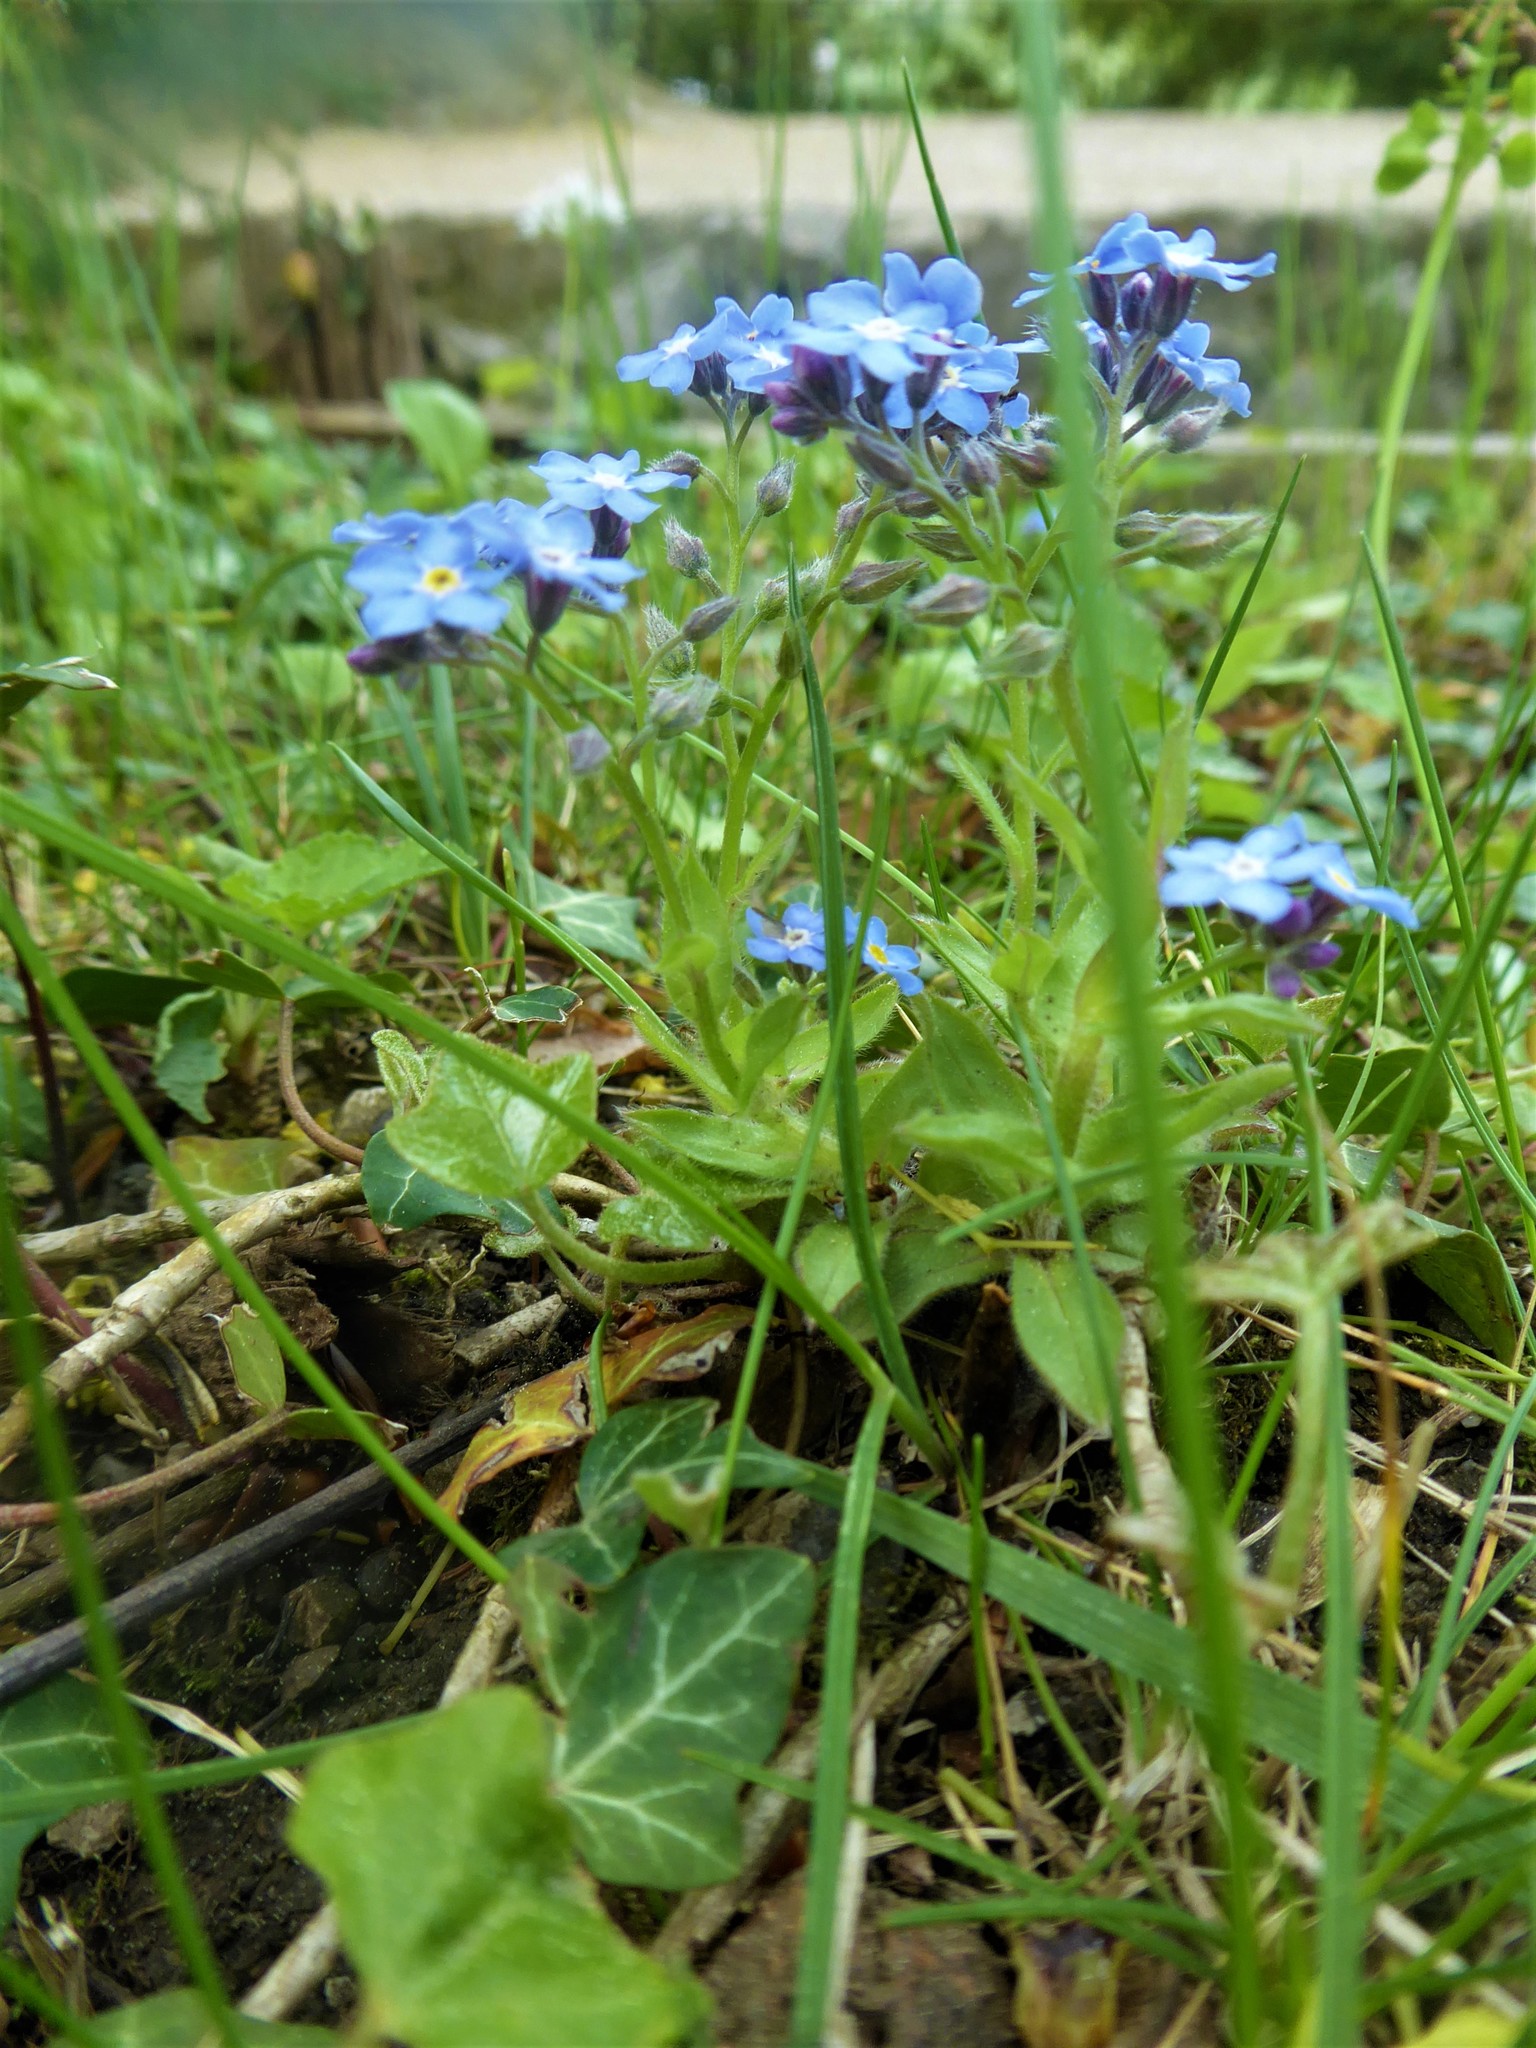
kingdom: Plantae
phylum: Tracheophyta
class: Magnoliopsida
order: Boraginales
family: Boraginaceae
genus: Myosotis
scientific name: Myosotis sylvatica
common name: Wood forget-me-not
